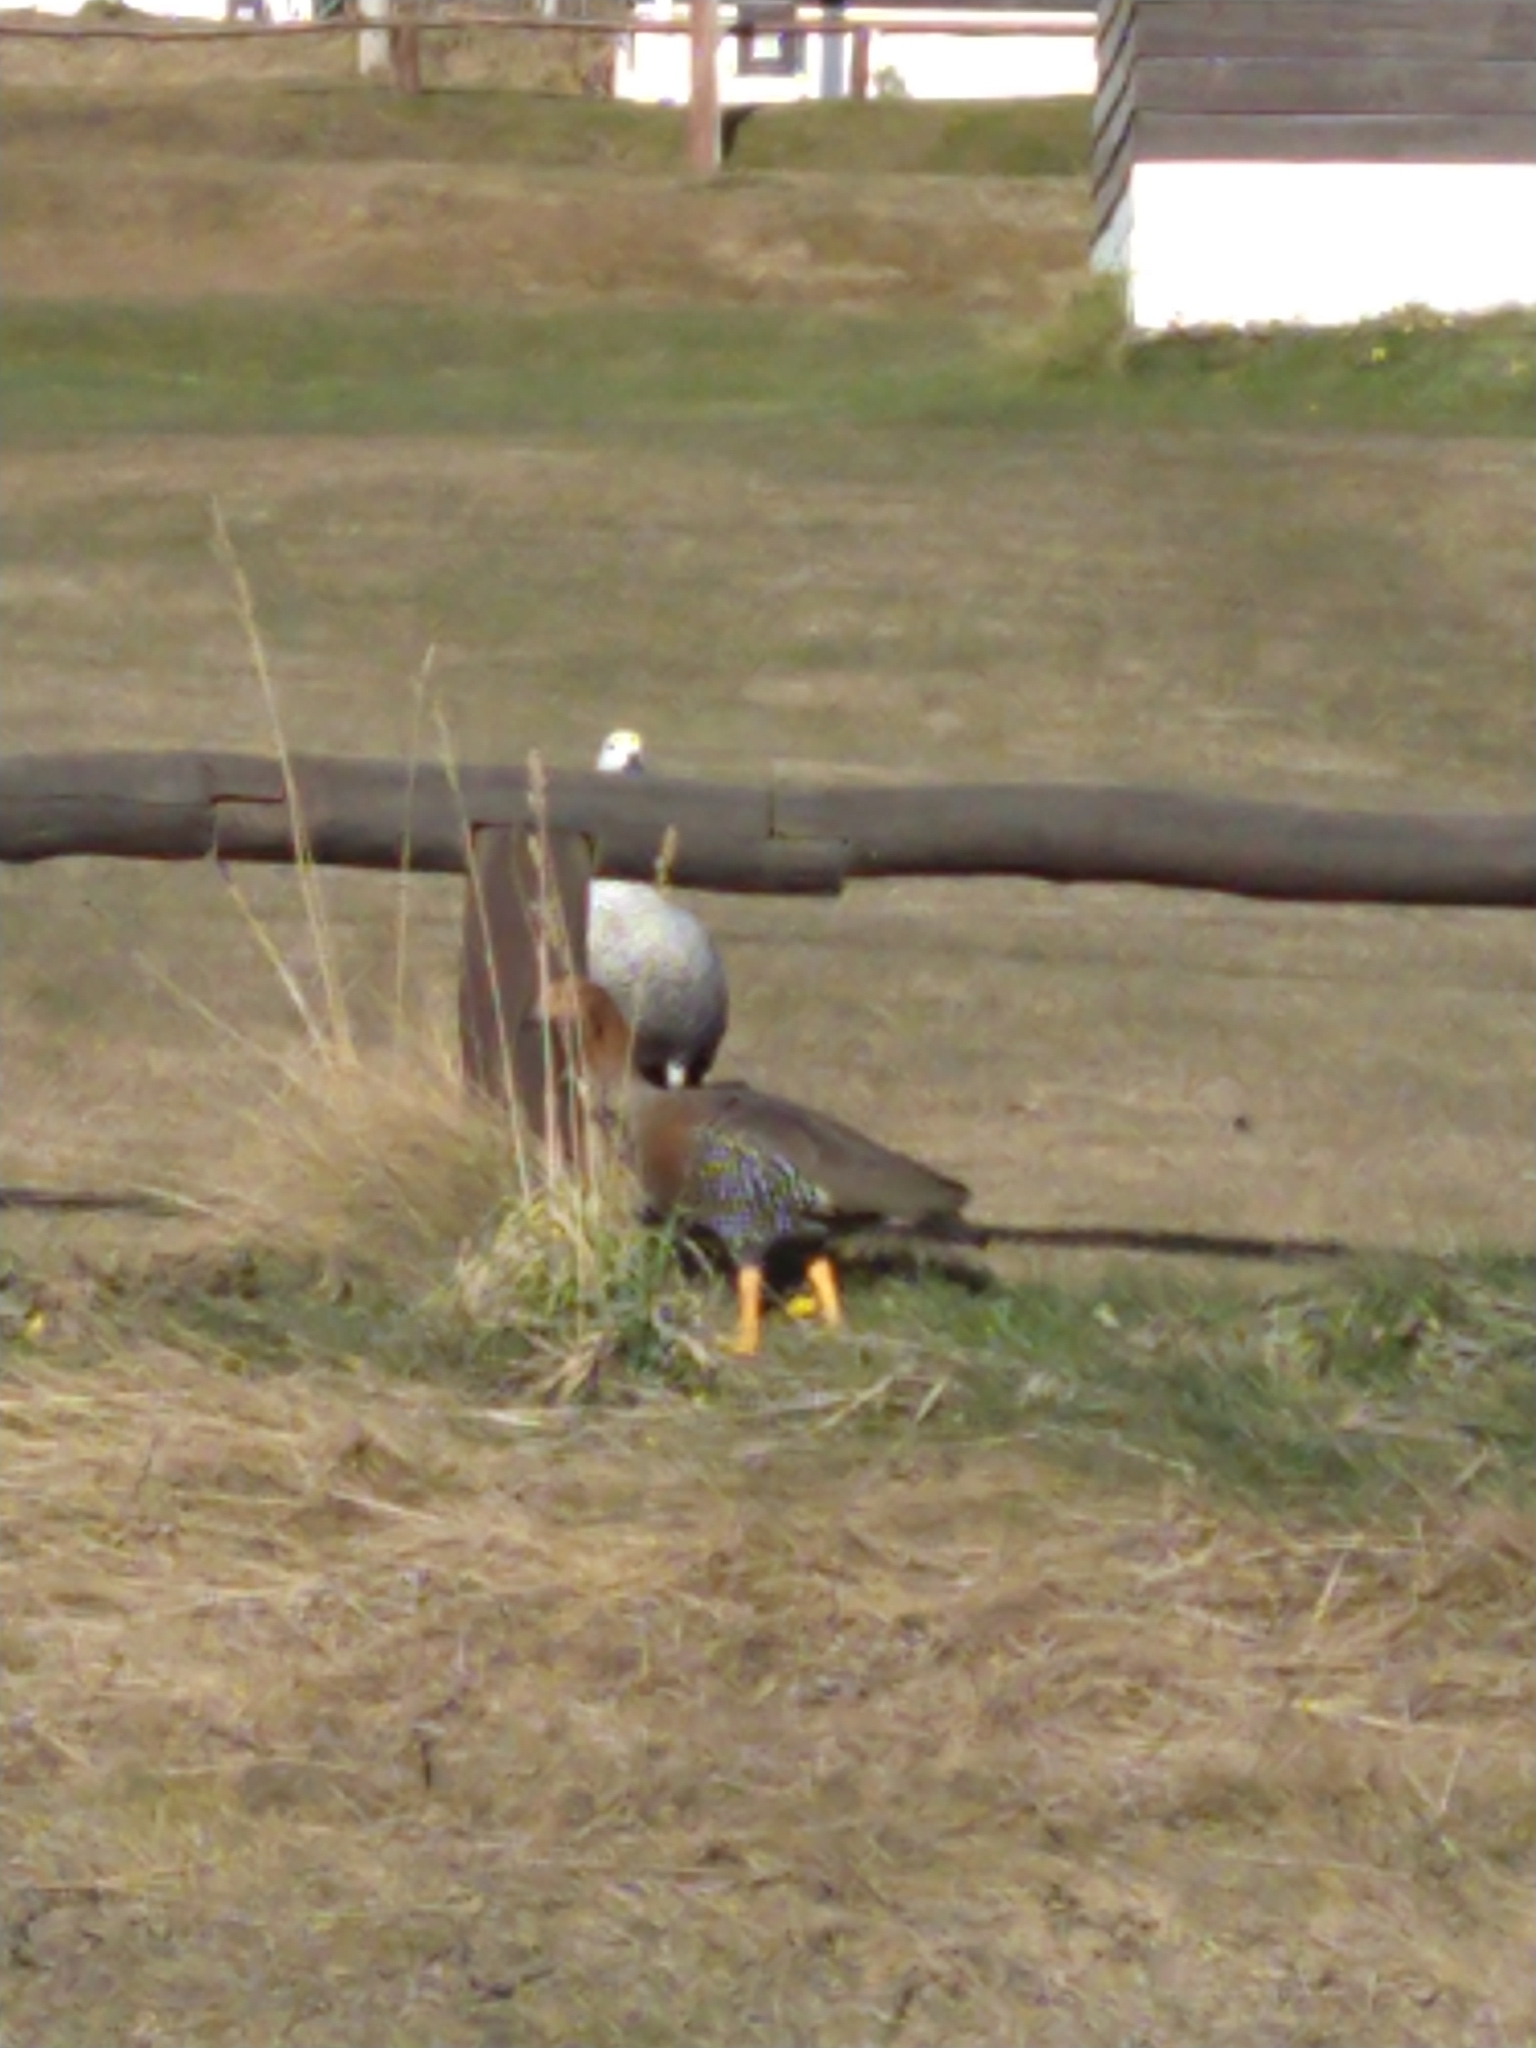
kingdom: Animalia
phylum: Chordata
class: Aves
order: Anseriformes
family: Anatidae
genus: Chloephaga
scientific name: Chloephaga picta
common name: Upland goose
